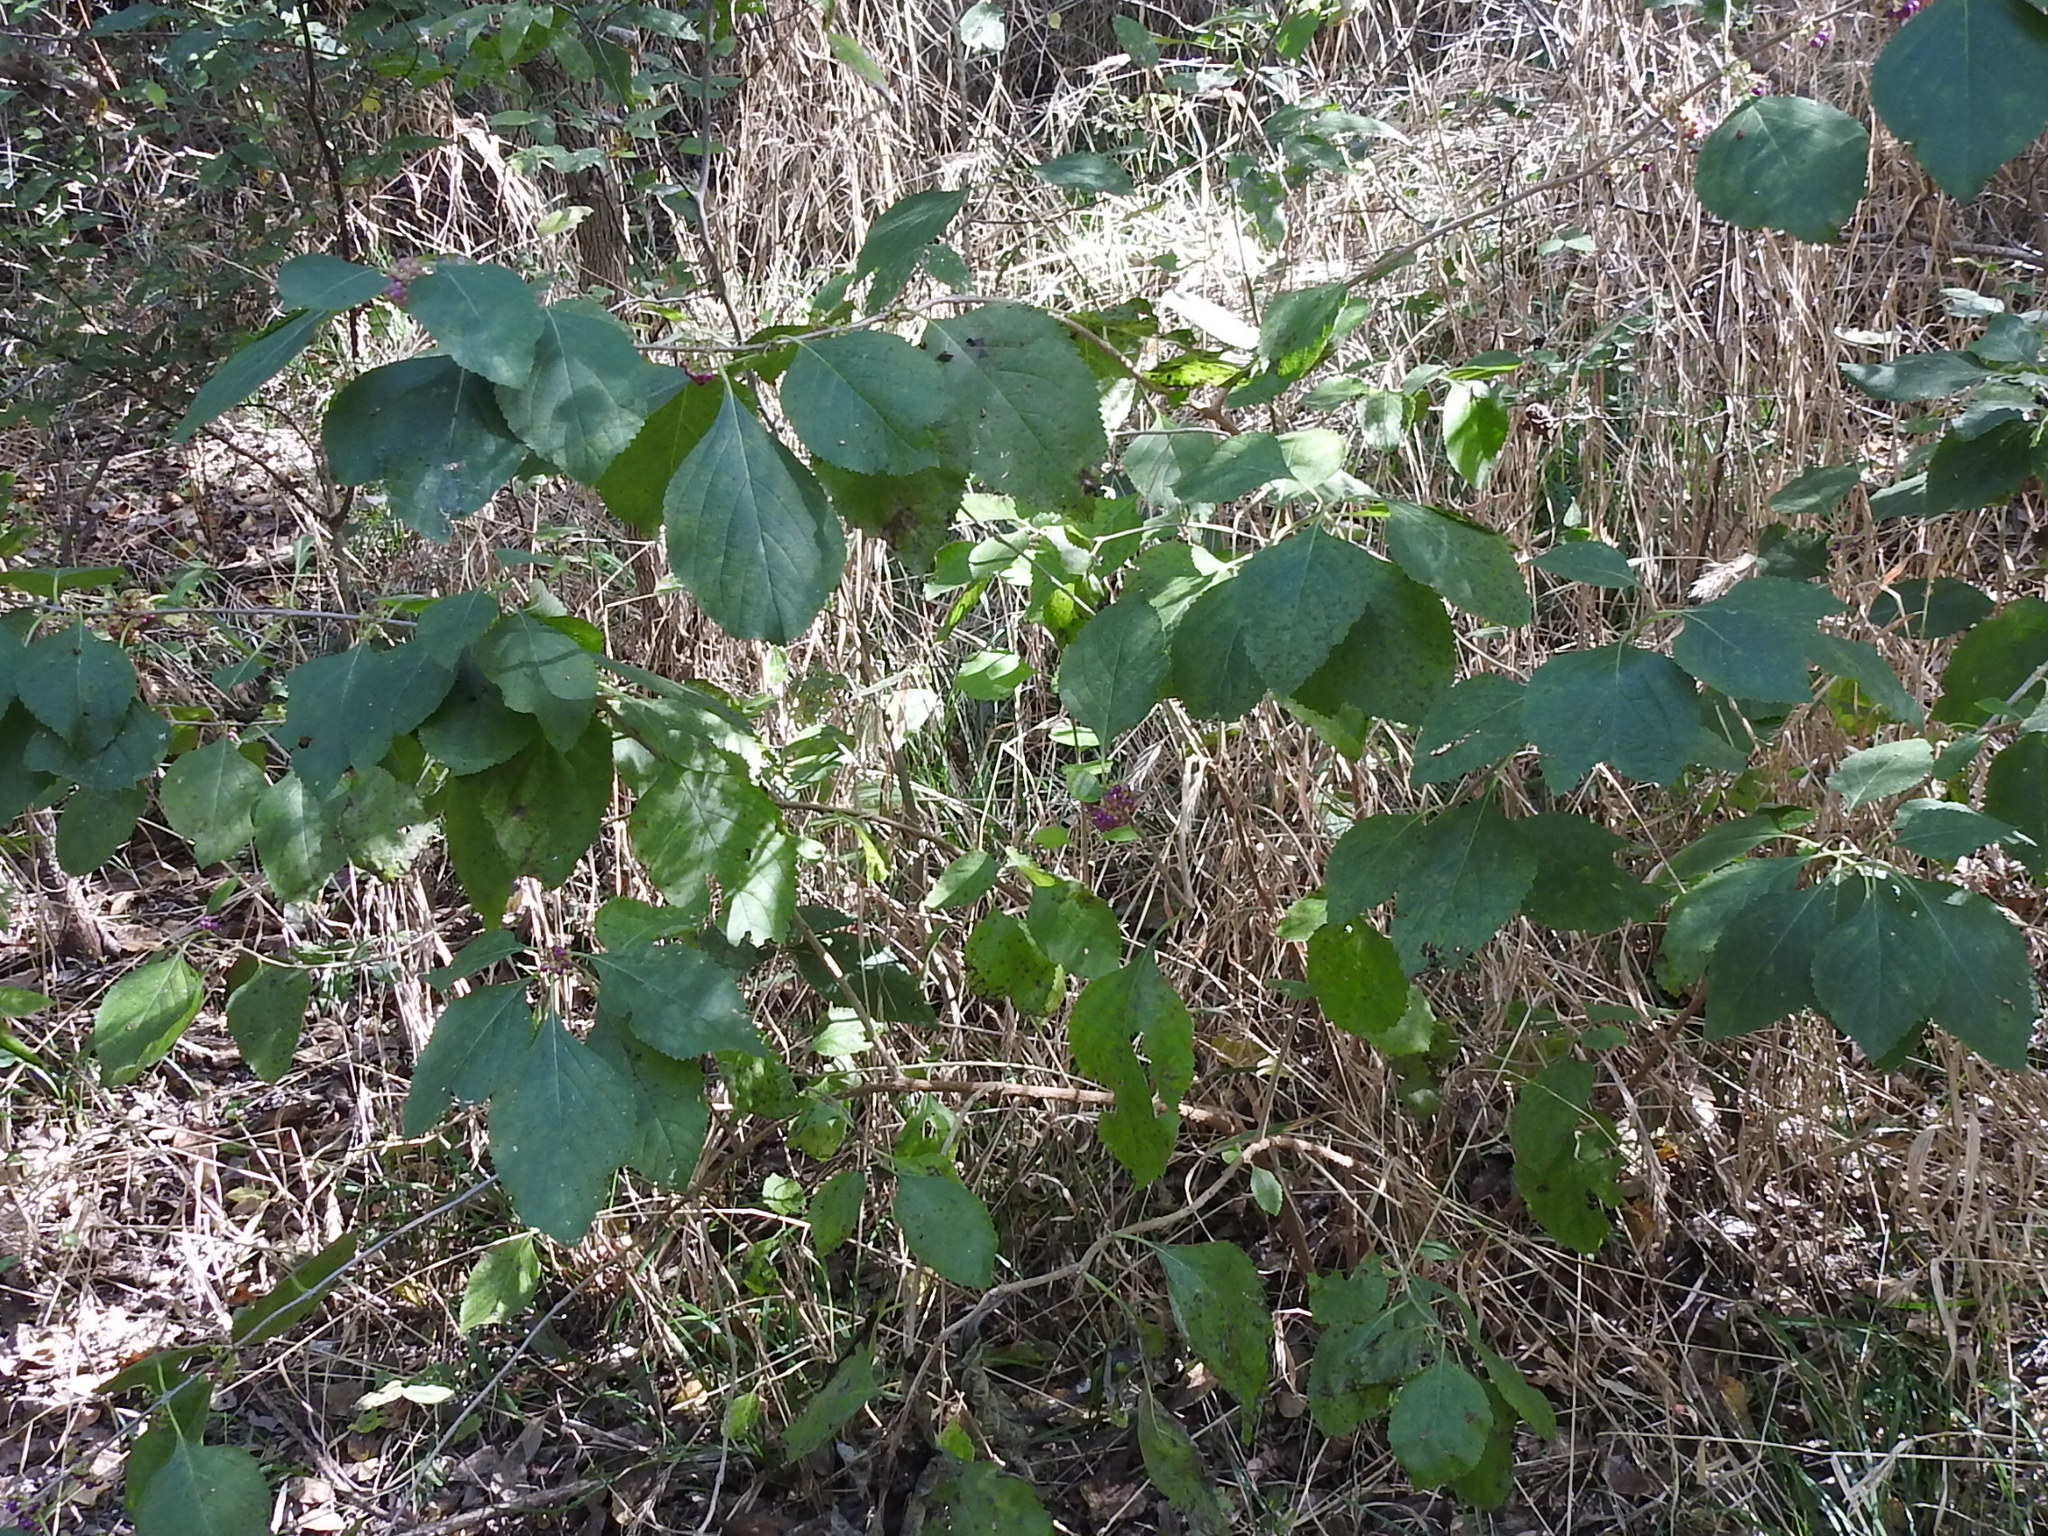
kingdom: Plantae
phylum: Tracheophyta
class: Magnoliopsida
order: Lamiales
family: Lamiaceae
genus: Callicarpa
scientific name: Callicarpa americana
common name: American beautyberry
